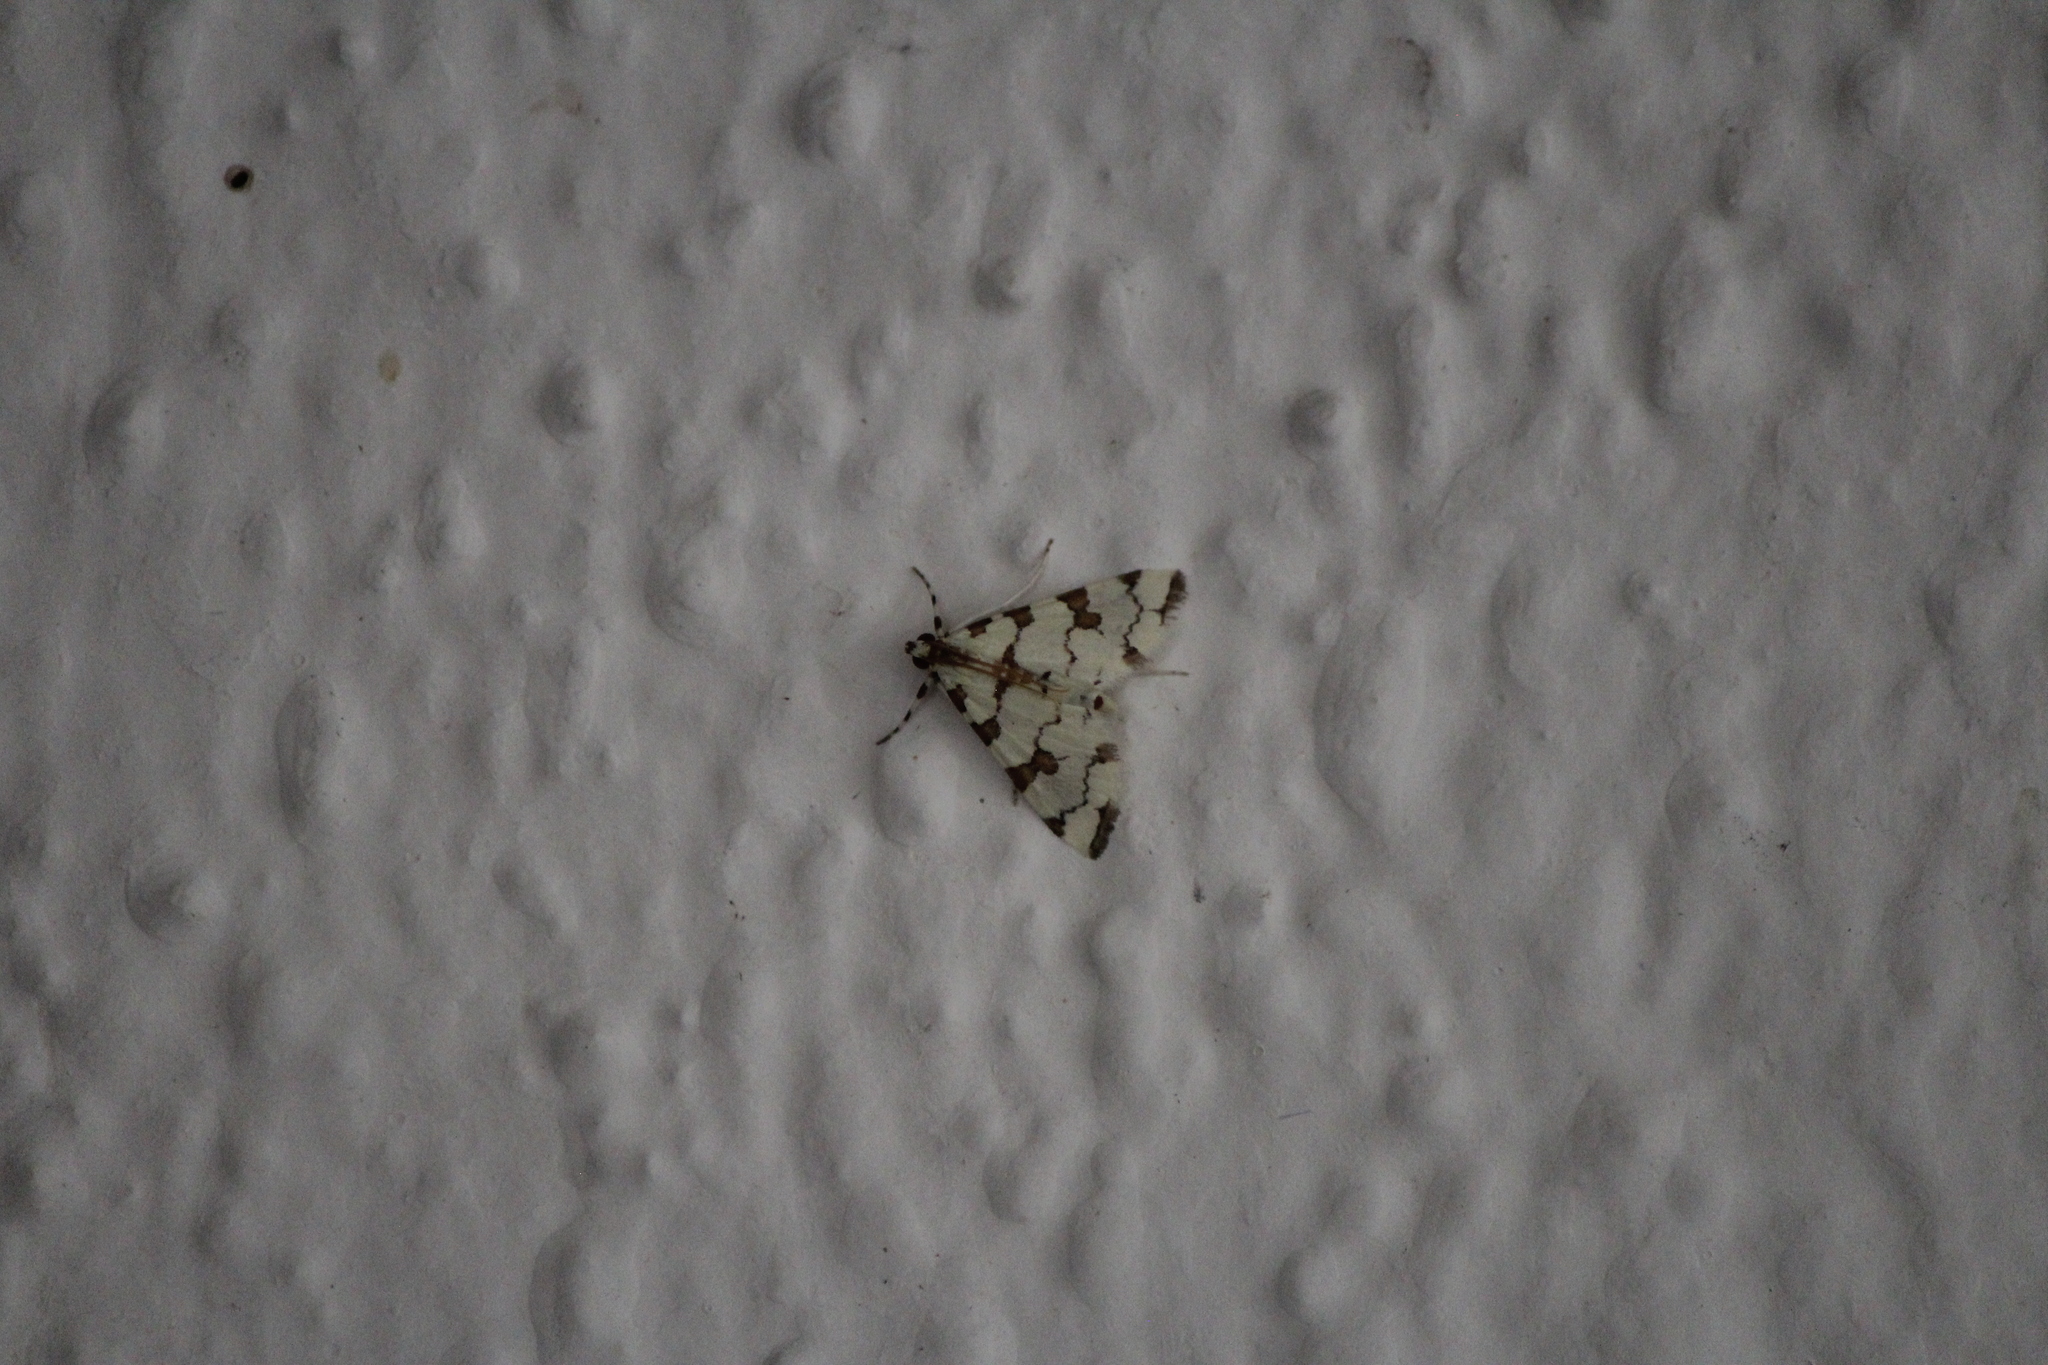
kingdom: Animalia
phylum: Arthropoda
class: Insecta
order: Lepidoptera
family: Crambidae
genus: Conchylodes
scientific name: Conchylodes
